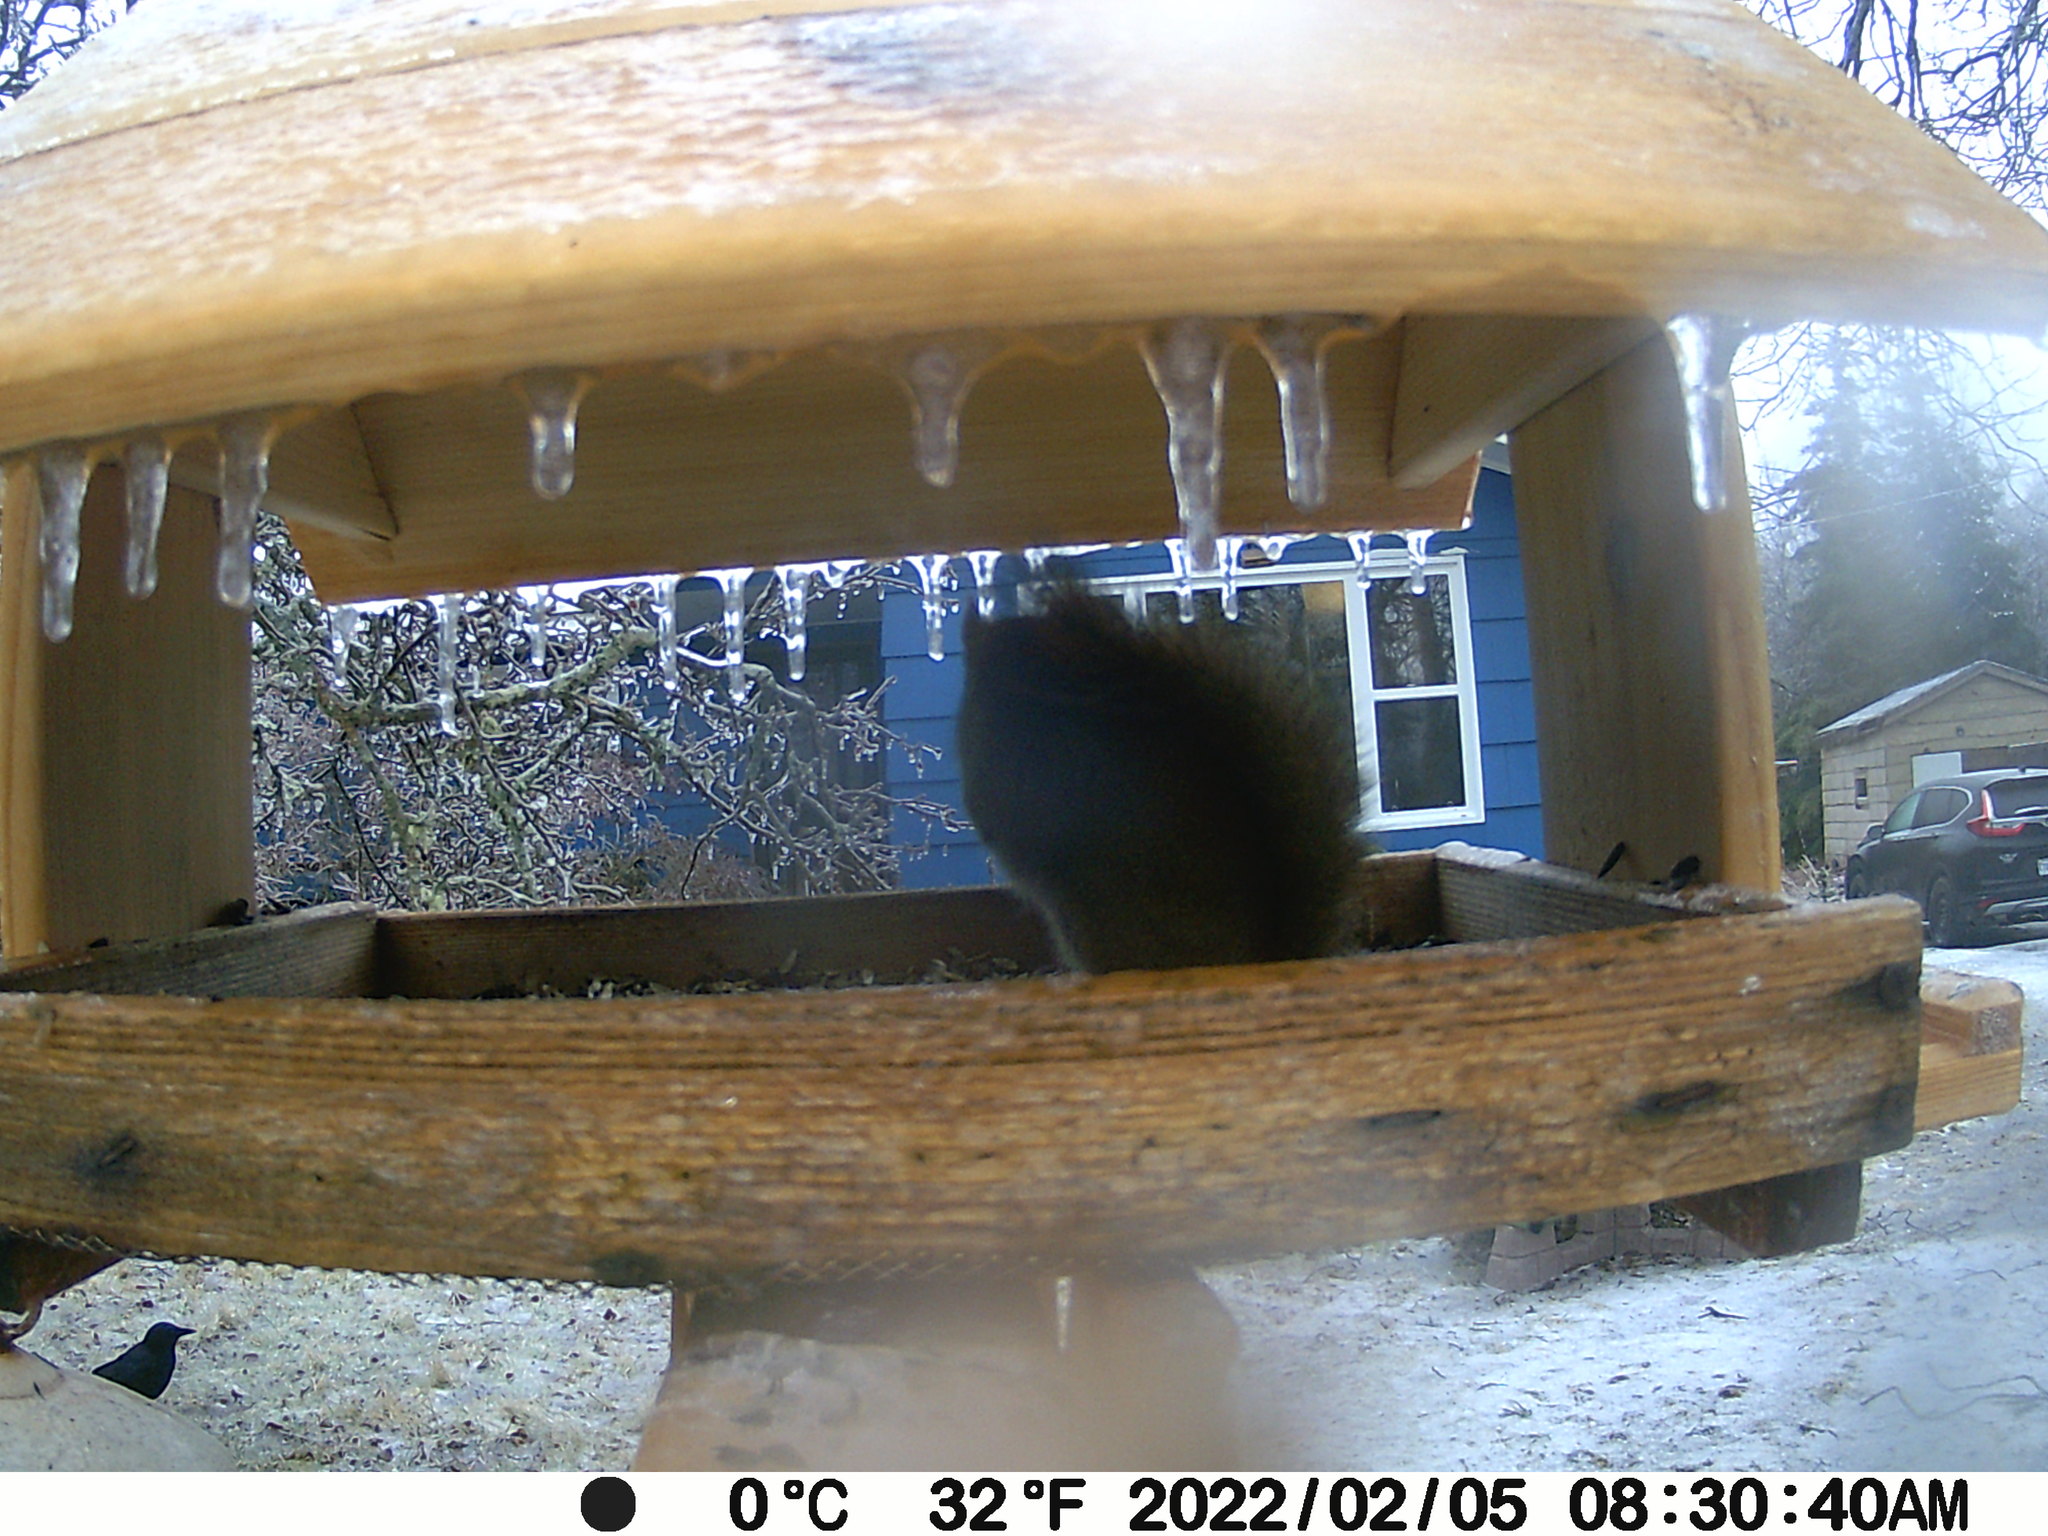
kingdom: Animalia
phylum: Chordata
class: Aves
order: Passeriformes
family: Corvidae
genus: Corvus
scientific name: Corvus brachyrhynchos
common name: American crow
